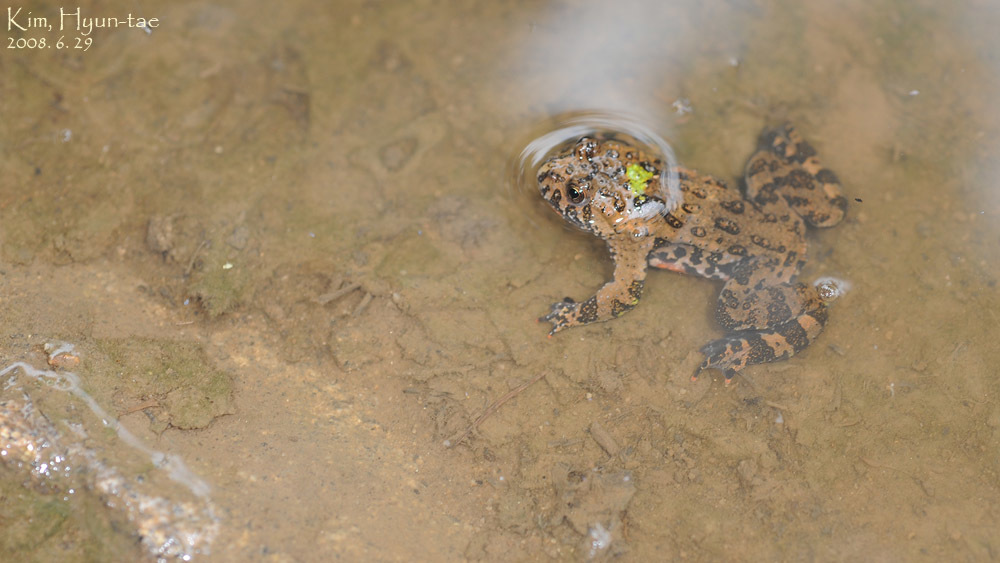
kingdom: Animalia
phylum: Chordata
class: Amphibia
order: Anura
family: Bombinatoridae
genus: Bombina
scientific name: Bombina orientalis
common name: Oriental firebelly toad
